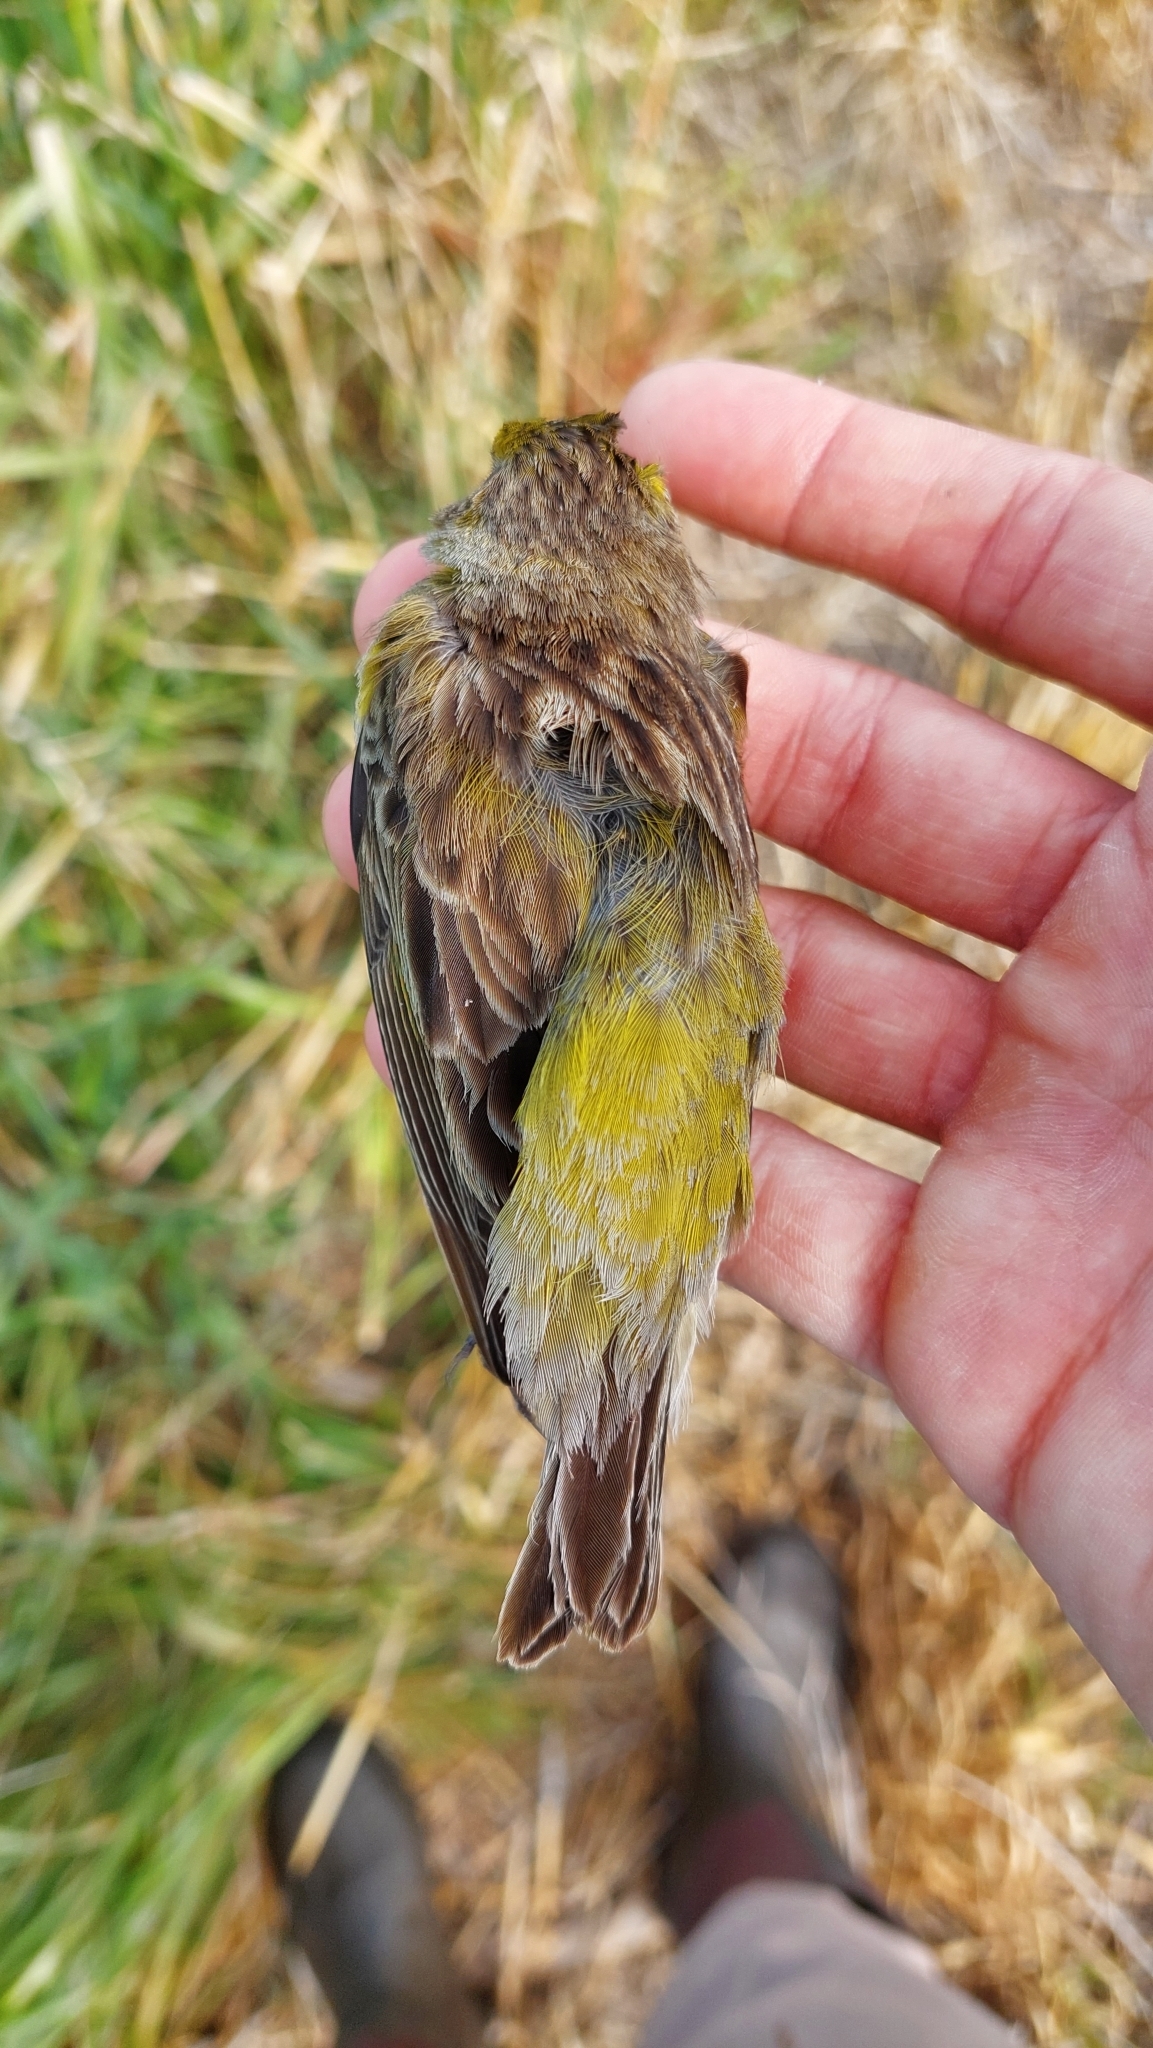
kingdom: Animalia
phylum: Chordata
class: Aves
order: Passeriformes
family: Thraupidae
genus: Sicalis
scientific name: Sicalis luteola
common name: Grassland yellow-finch
